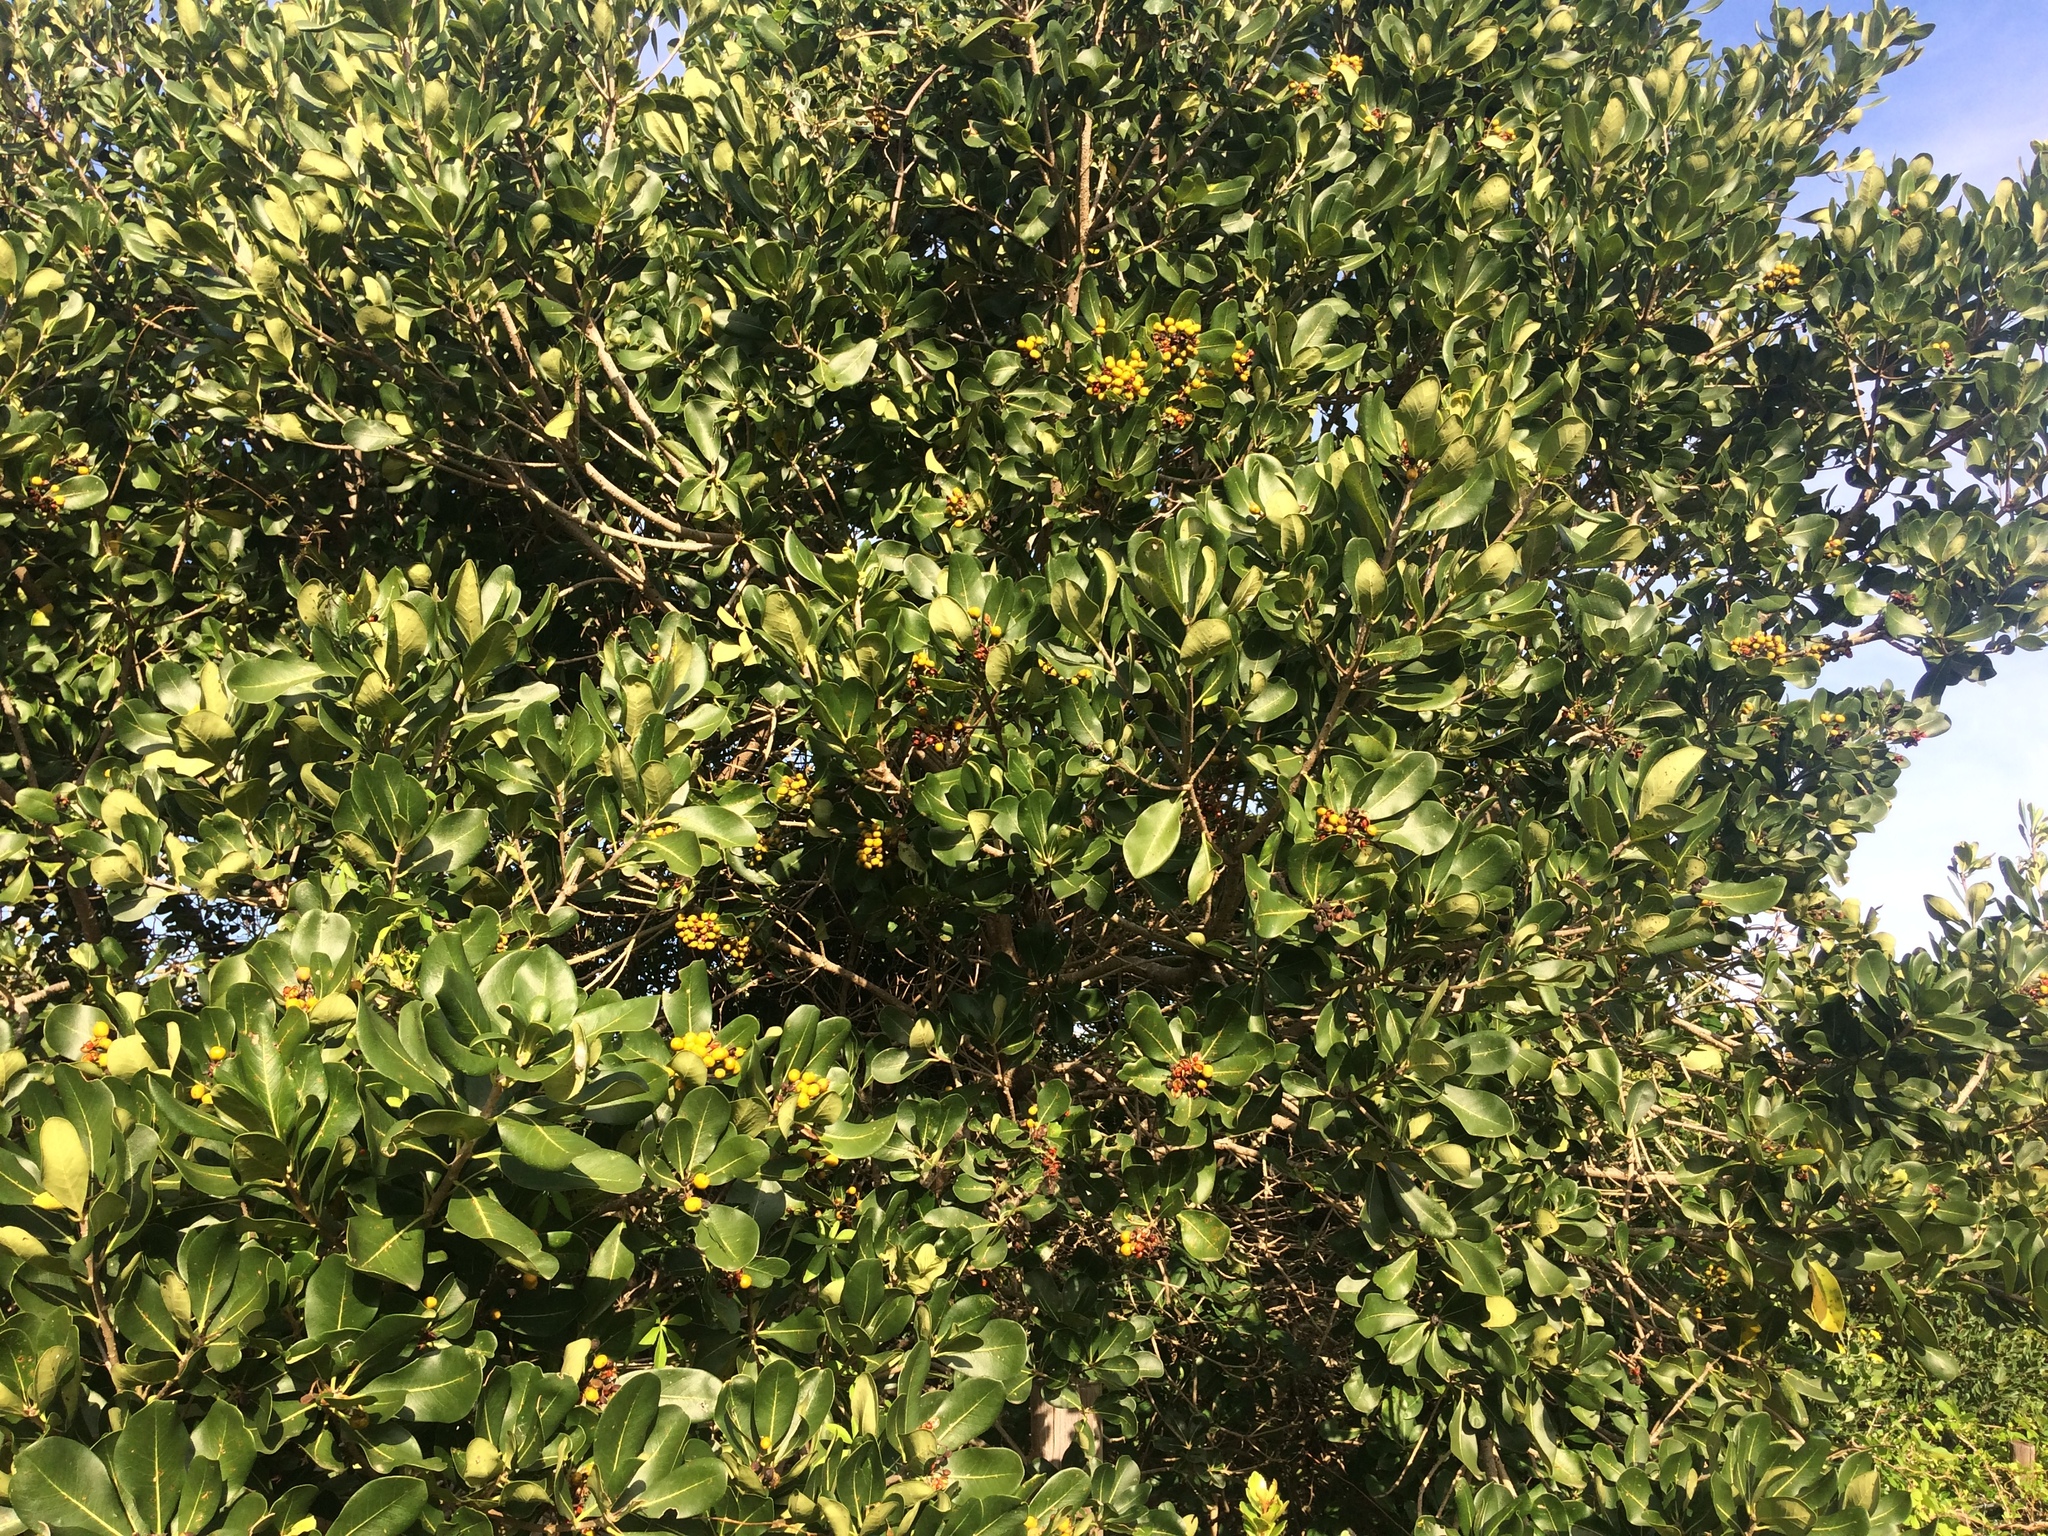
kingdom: Plantae
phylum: Tracheophyta
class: Magnoliopsida
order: Apiales
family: Pittosporaceae
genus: Pittosporum
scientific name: Pittosporum viridiflorum
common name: Cape cheesewood
